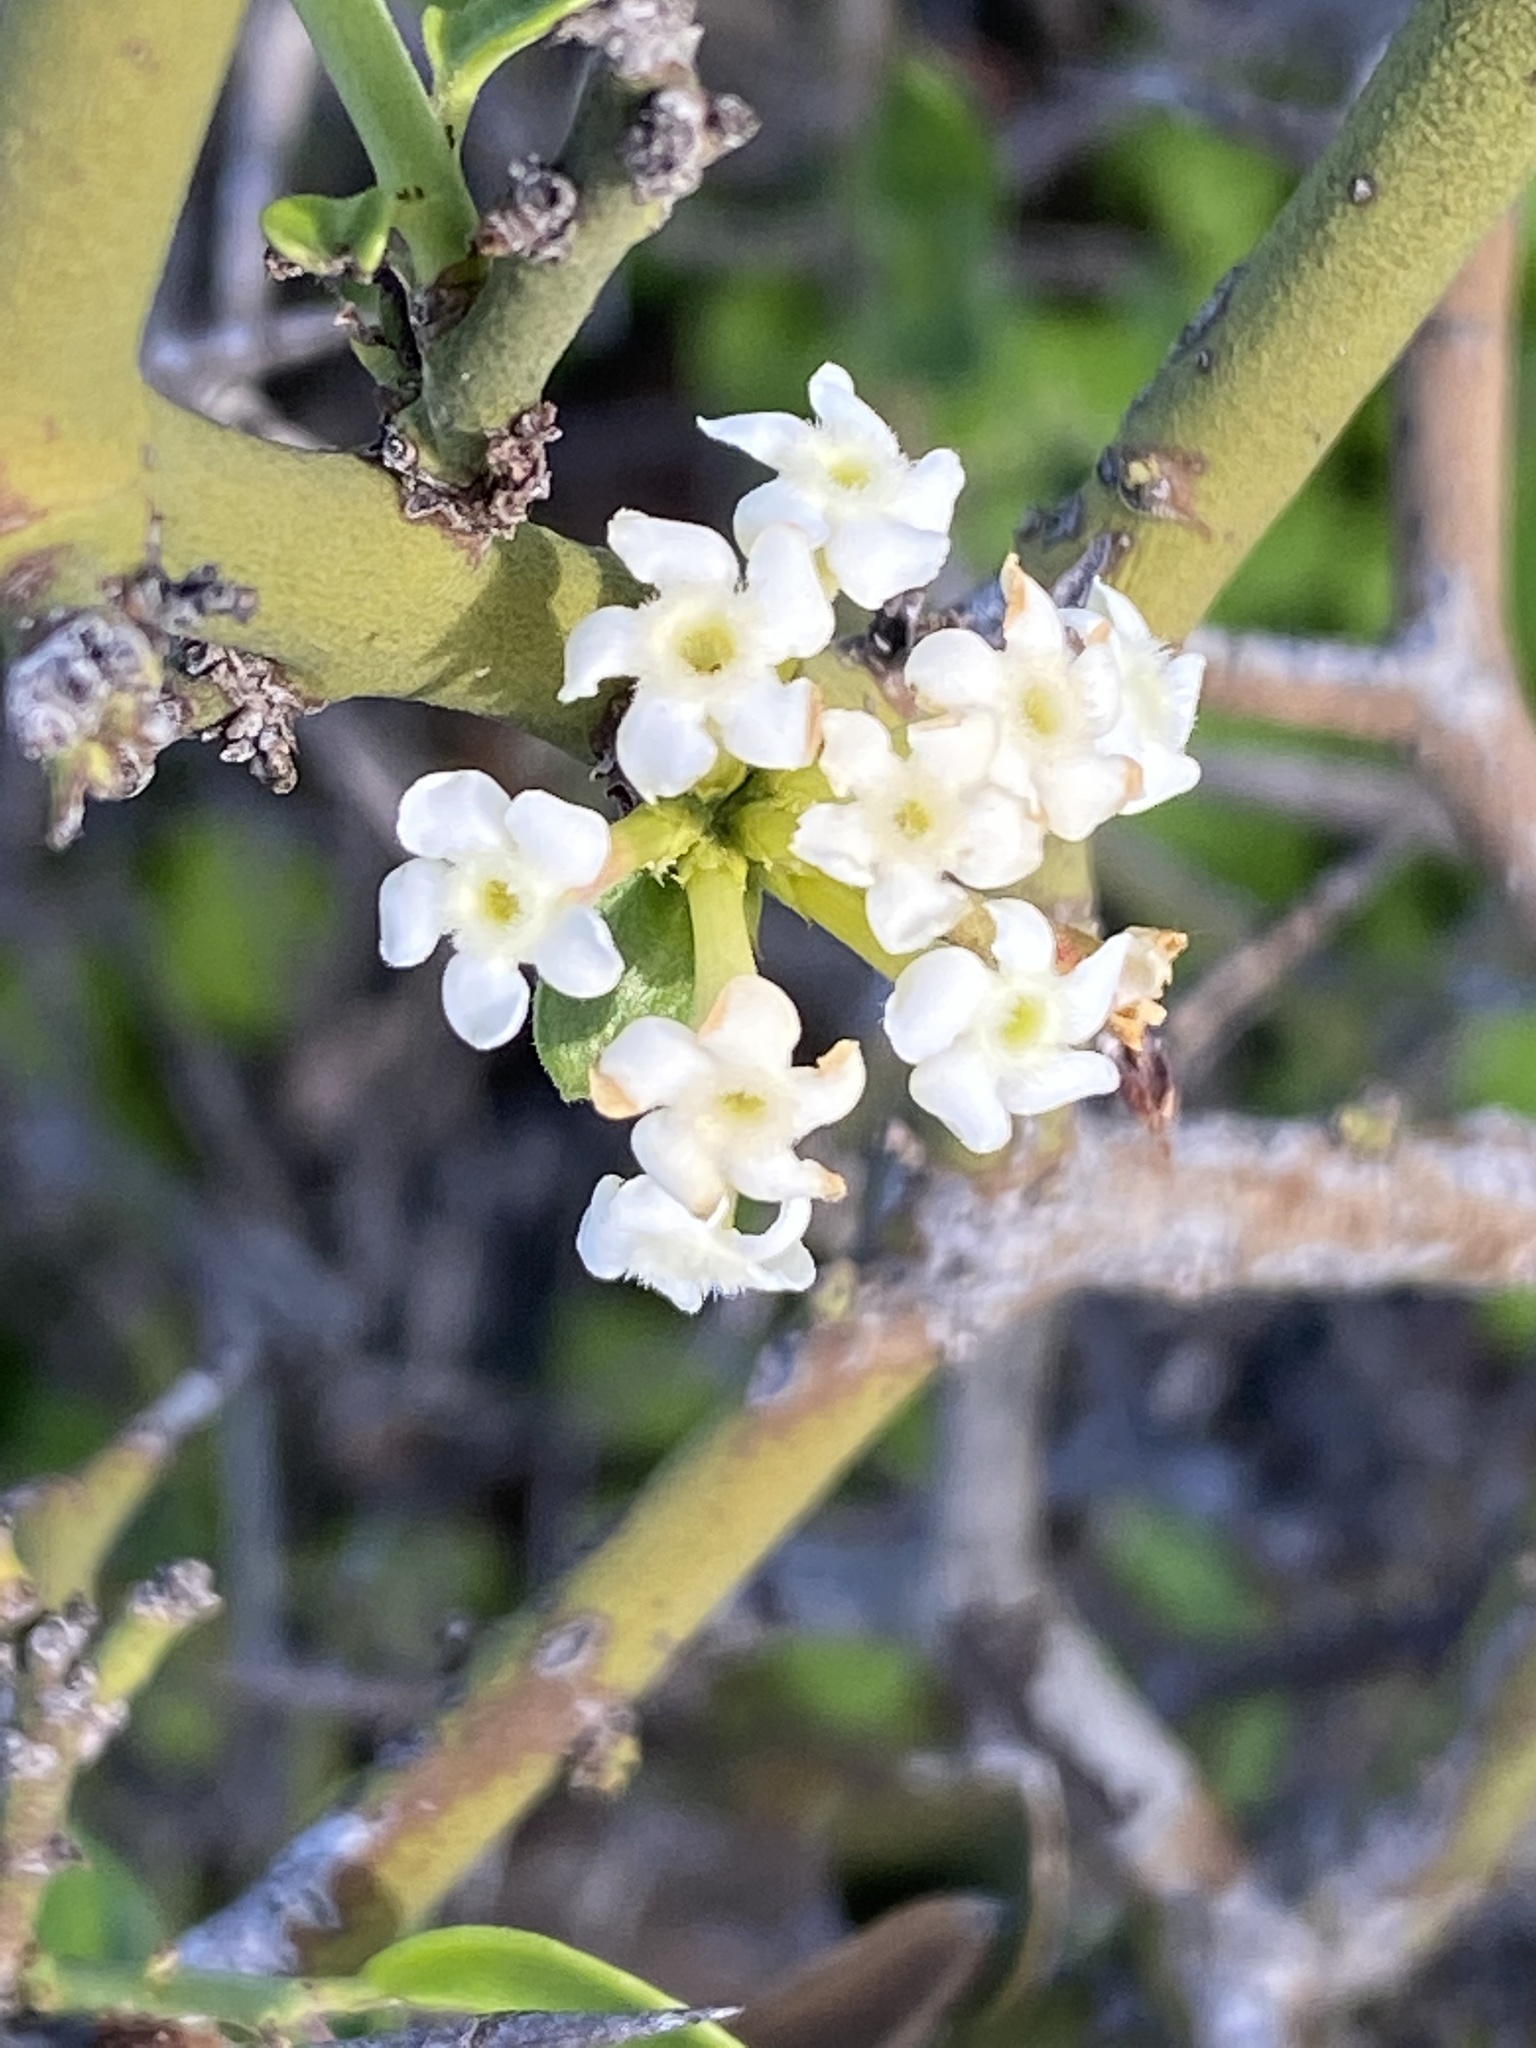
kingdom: Plantae
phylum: Tracheophyta
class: Magnoliopsida
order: Gentianales
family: Apocynaceae
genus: Carissa
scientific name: Carissa haematocarpa
